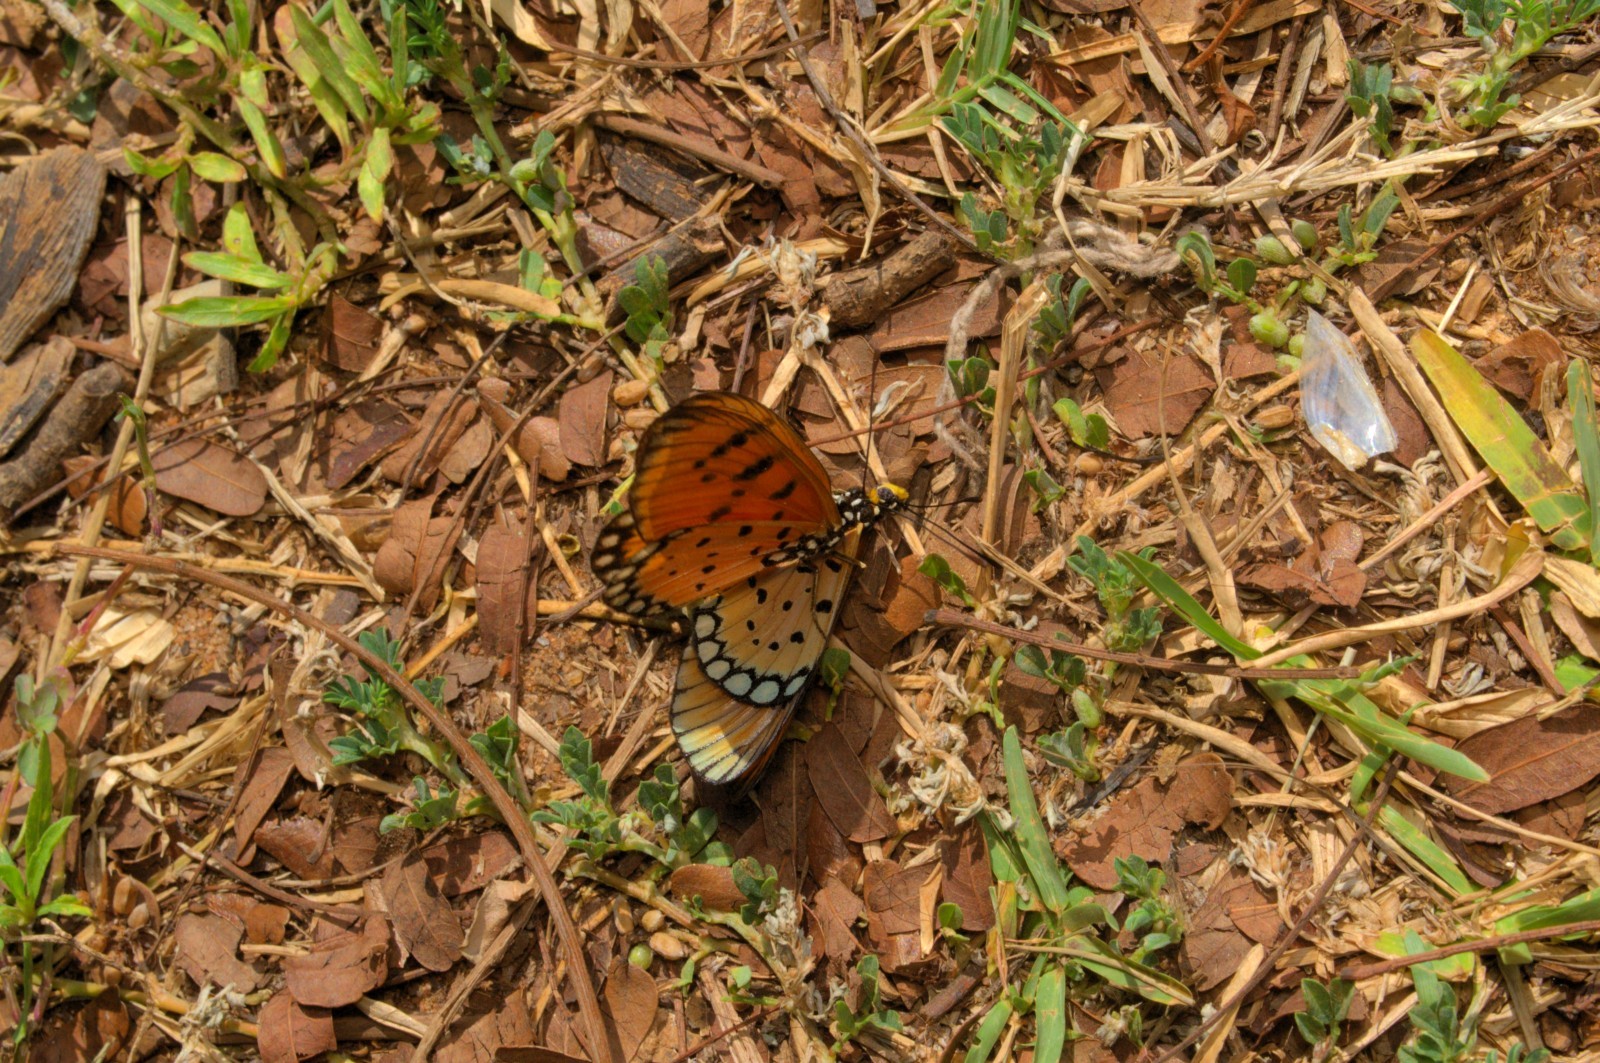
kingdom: Animalia
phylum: Arthropoda
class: Insecta
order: Lepidoptera
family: Nymphalidae
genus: Acraea
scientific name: Acraea terpsicore
